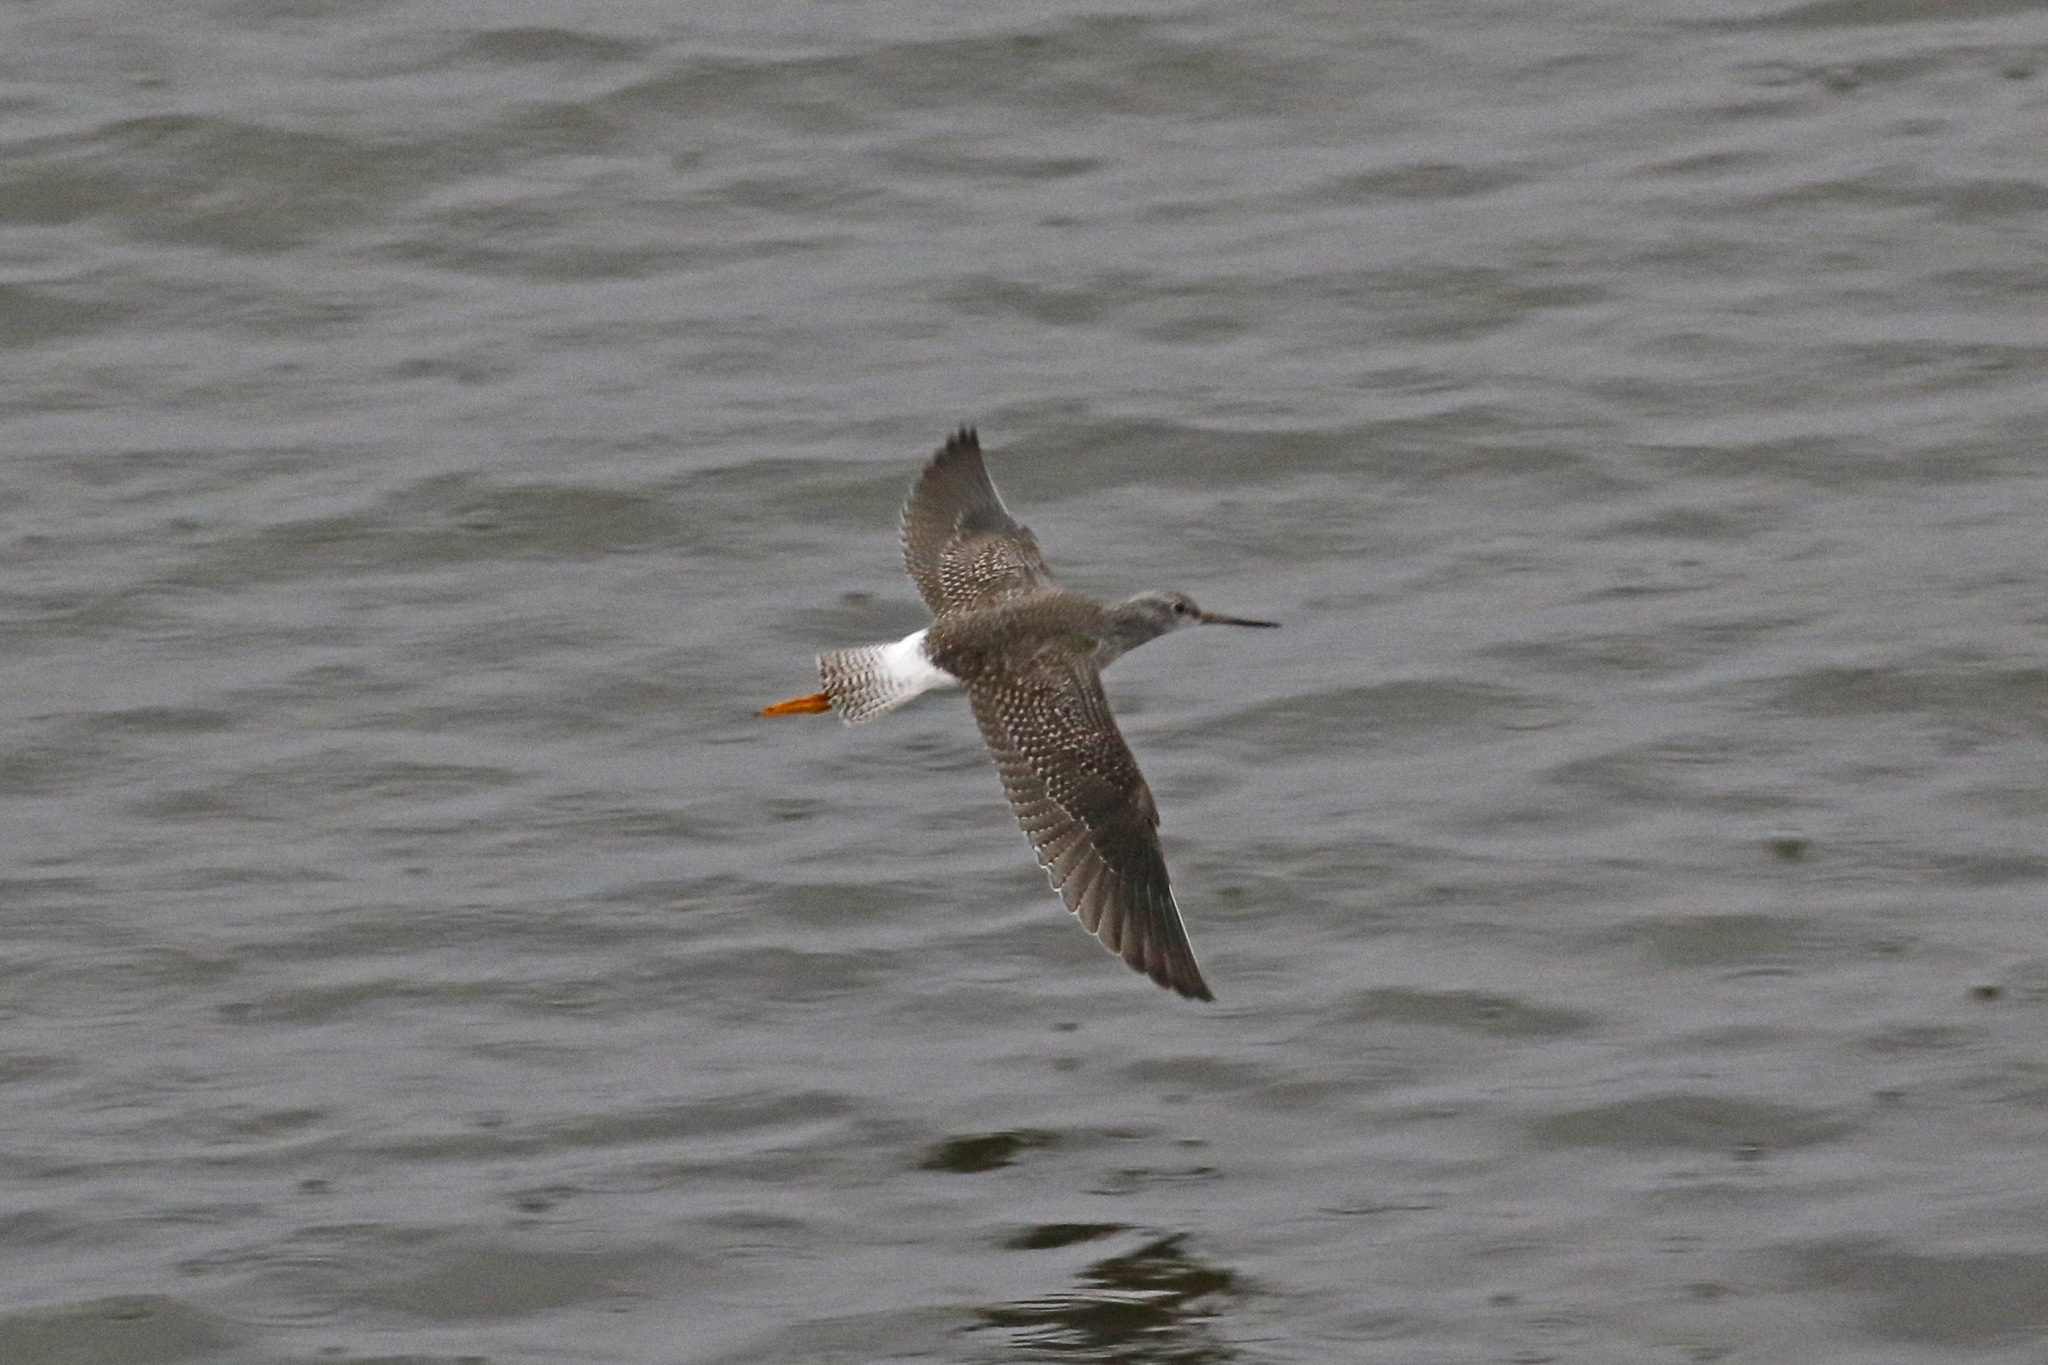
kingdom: Animalia
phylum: Chordata
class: Aves
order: Charadriiformes
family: Scolopacidae
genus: Tringa
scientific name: Tringa melanoleuca
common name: Greater yellowlegs
